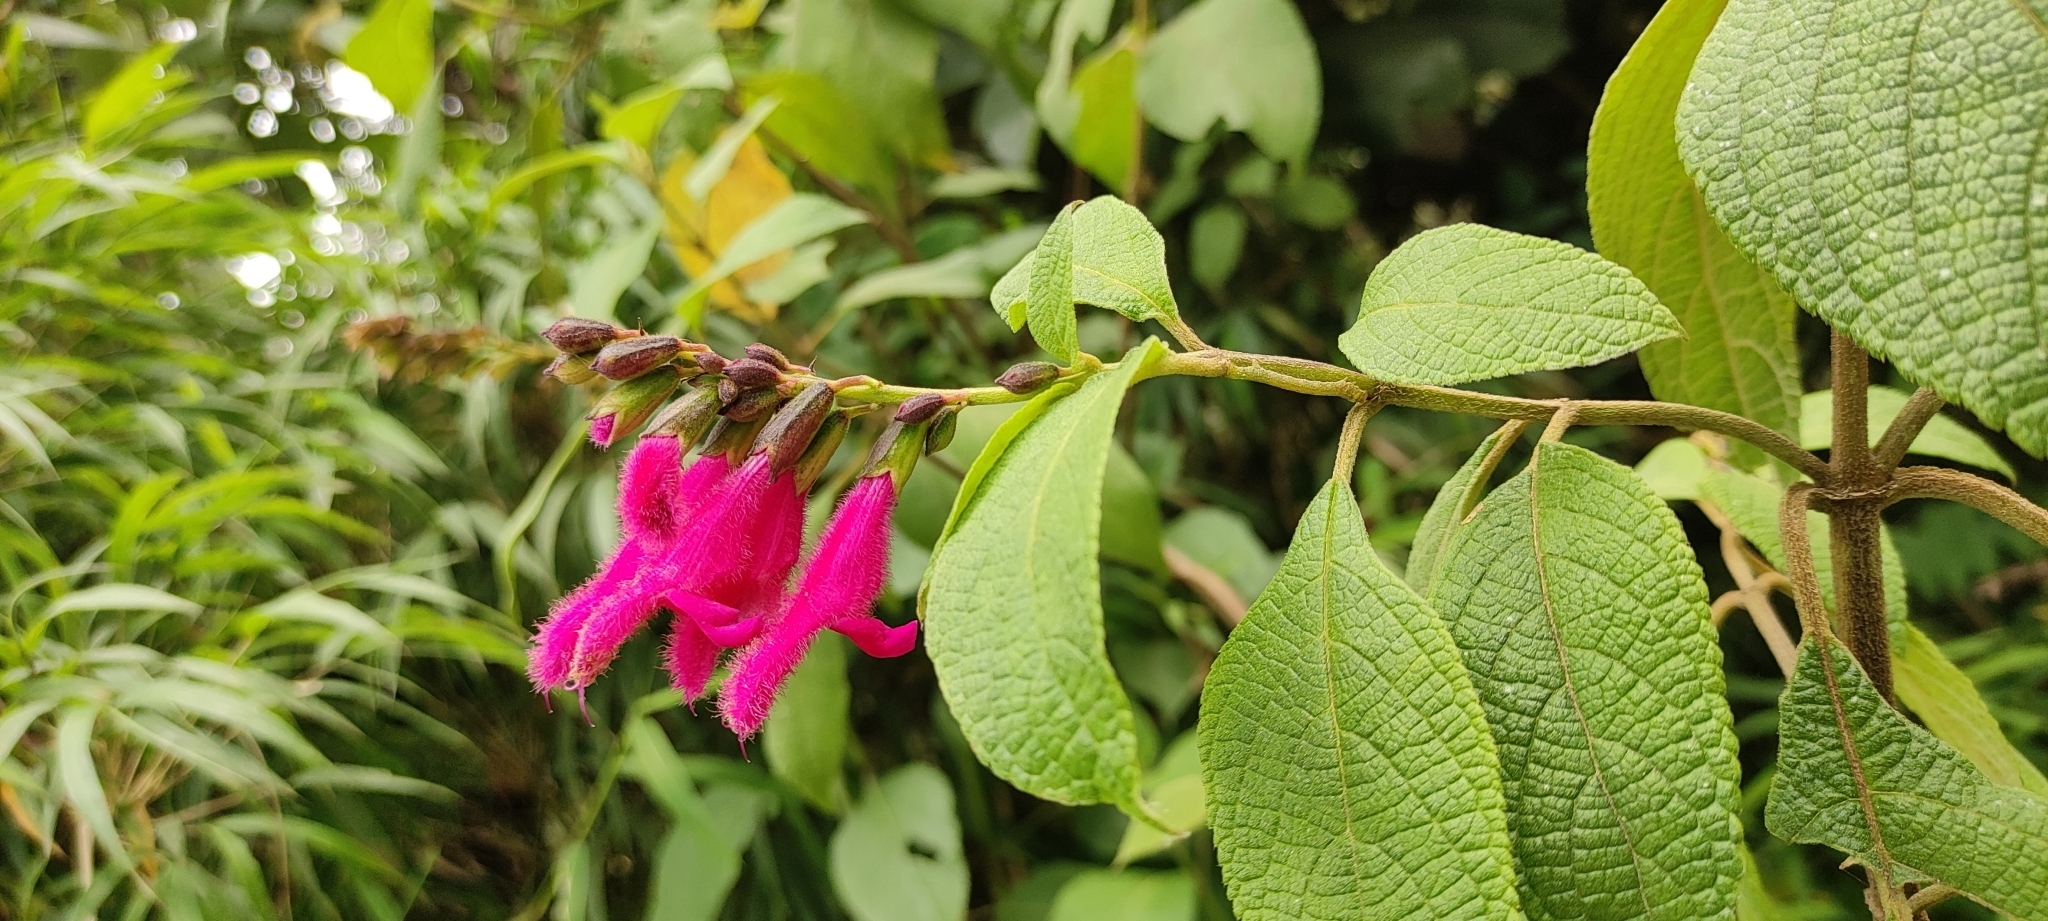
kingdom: Plantae
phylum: Tracheophyta
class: Magnoliopsida
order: Lamiales
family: Lamiaceae
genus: Salvia
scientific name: Salvia tortuosa
